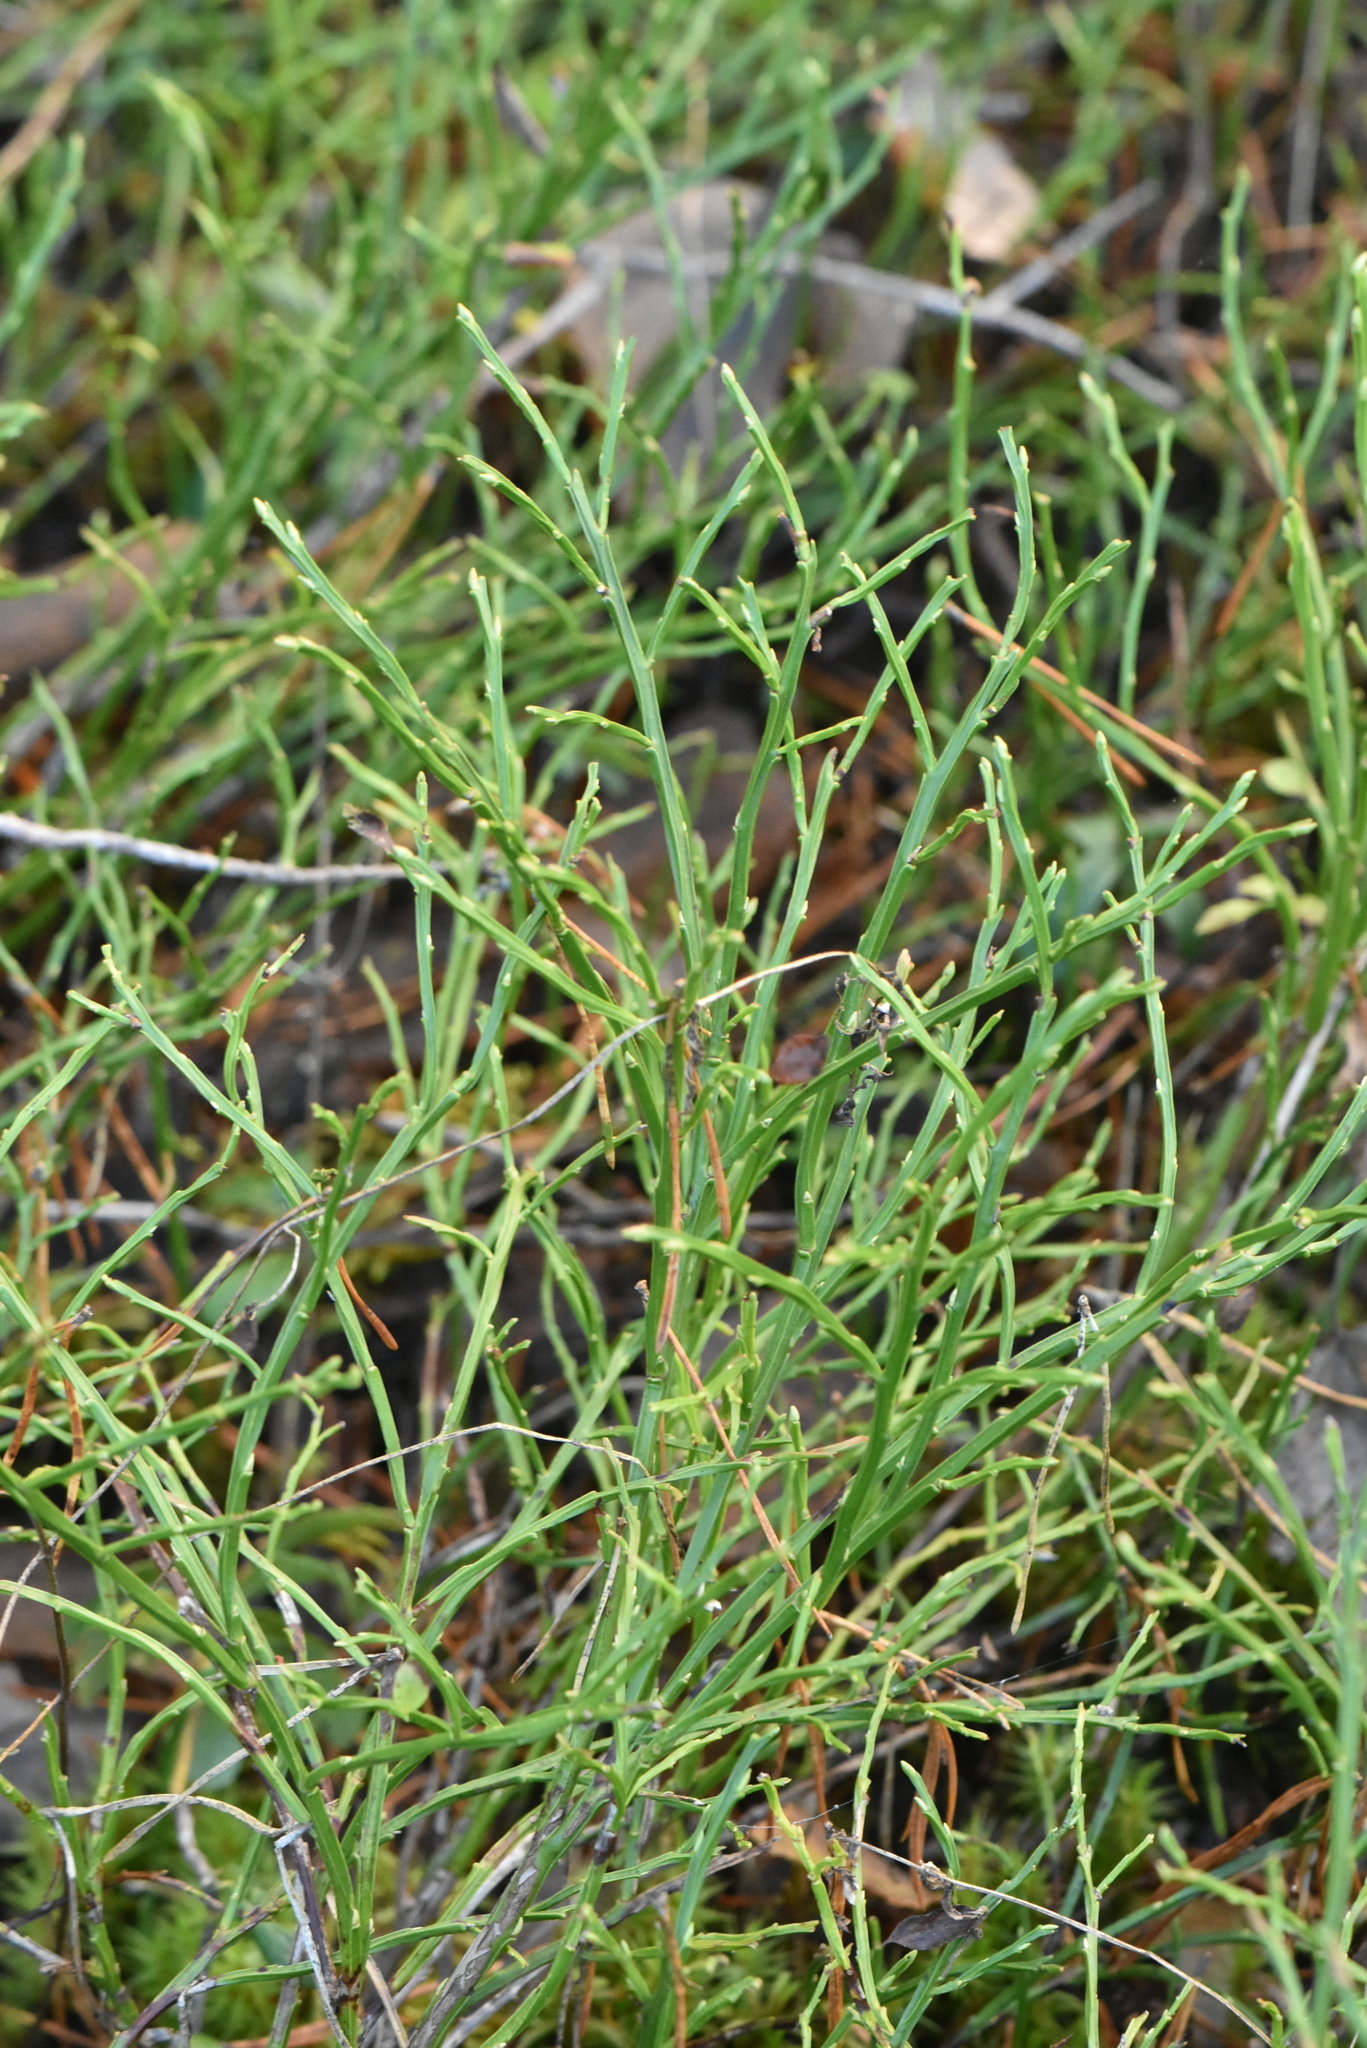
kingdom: Plantae
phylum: Tracheophyta
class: Magnoliopsida
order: Ericales
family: Ericaceae
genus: Vaccinium
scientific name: Vaccinium myrtillus
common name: Bilberry
